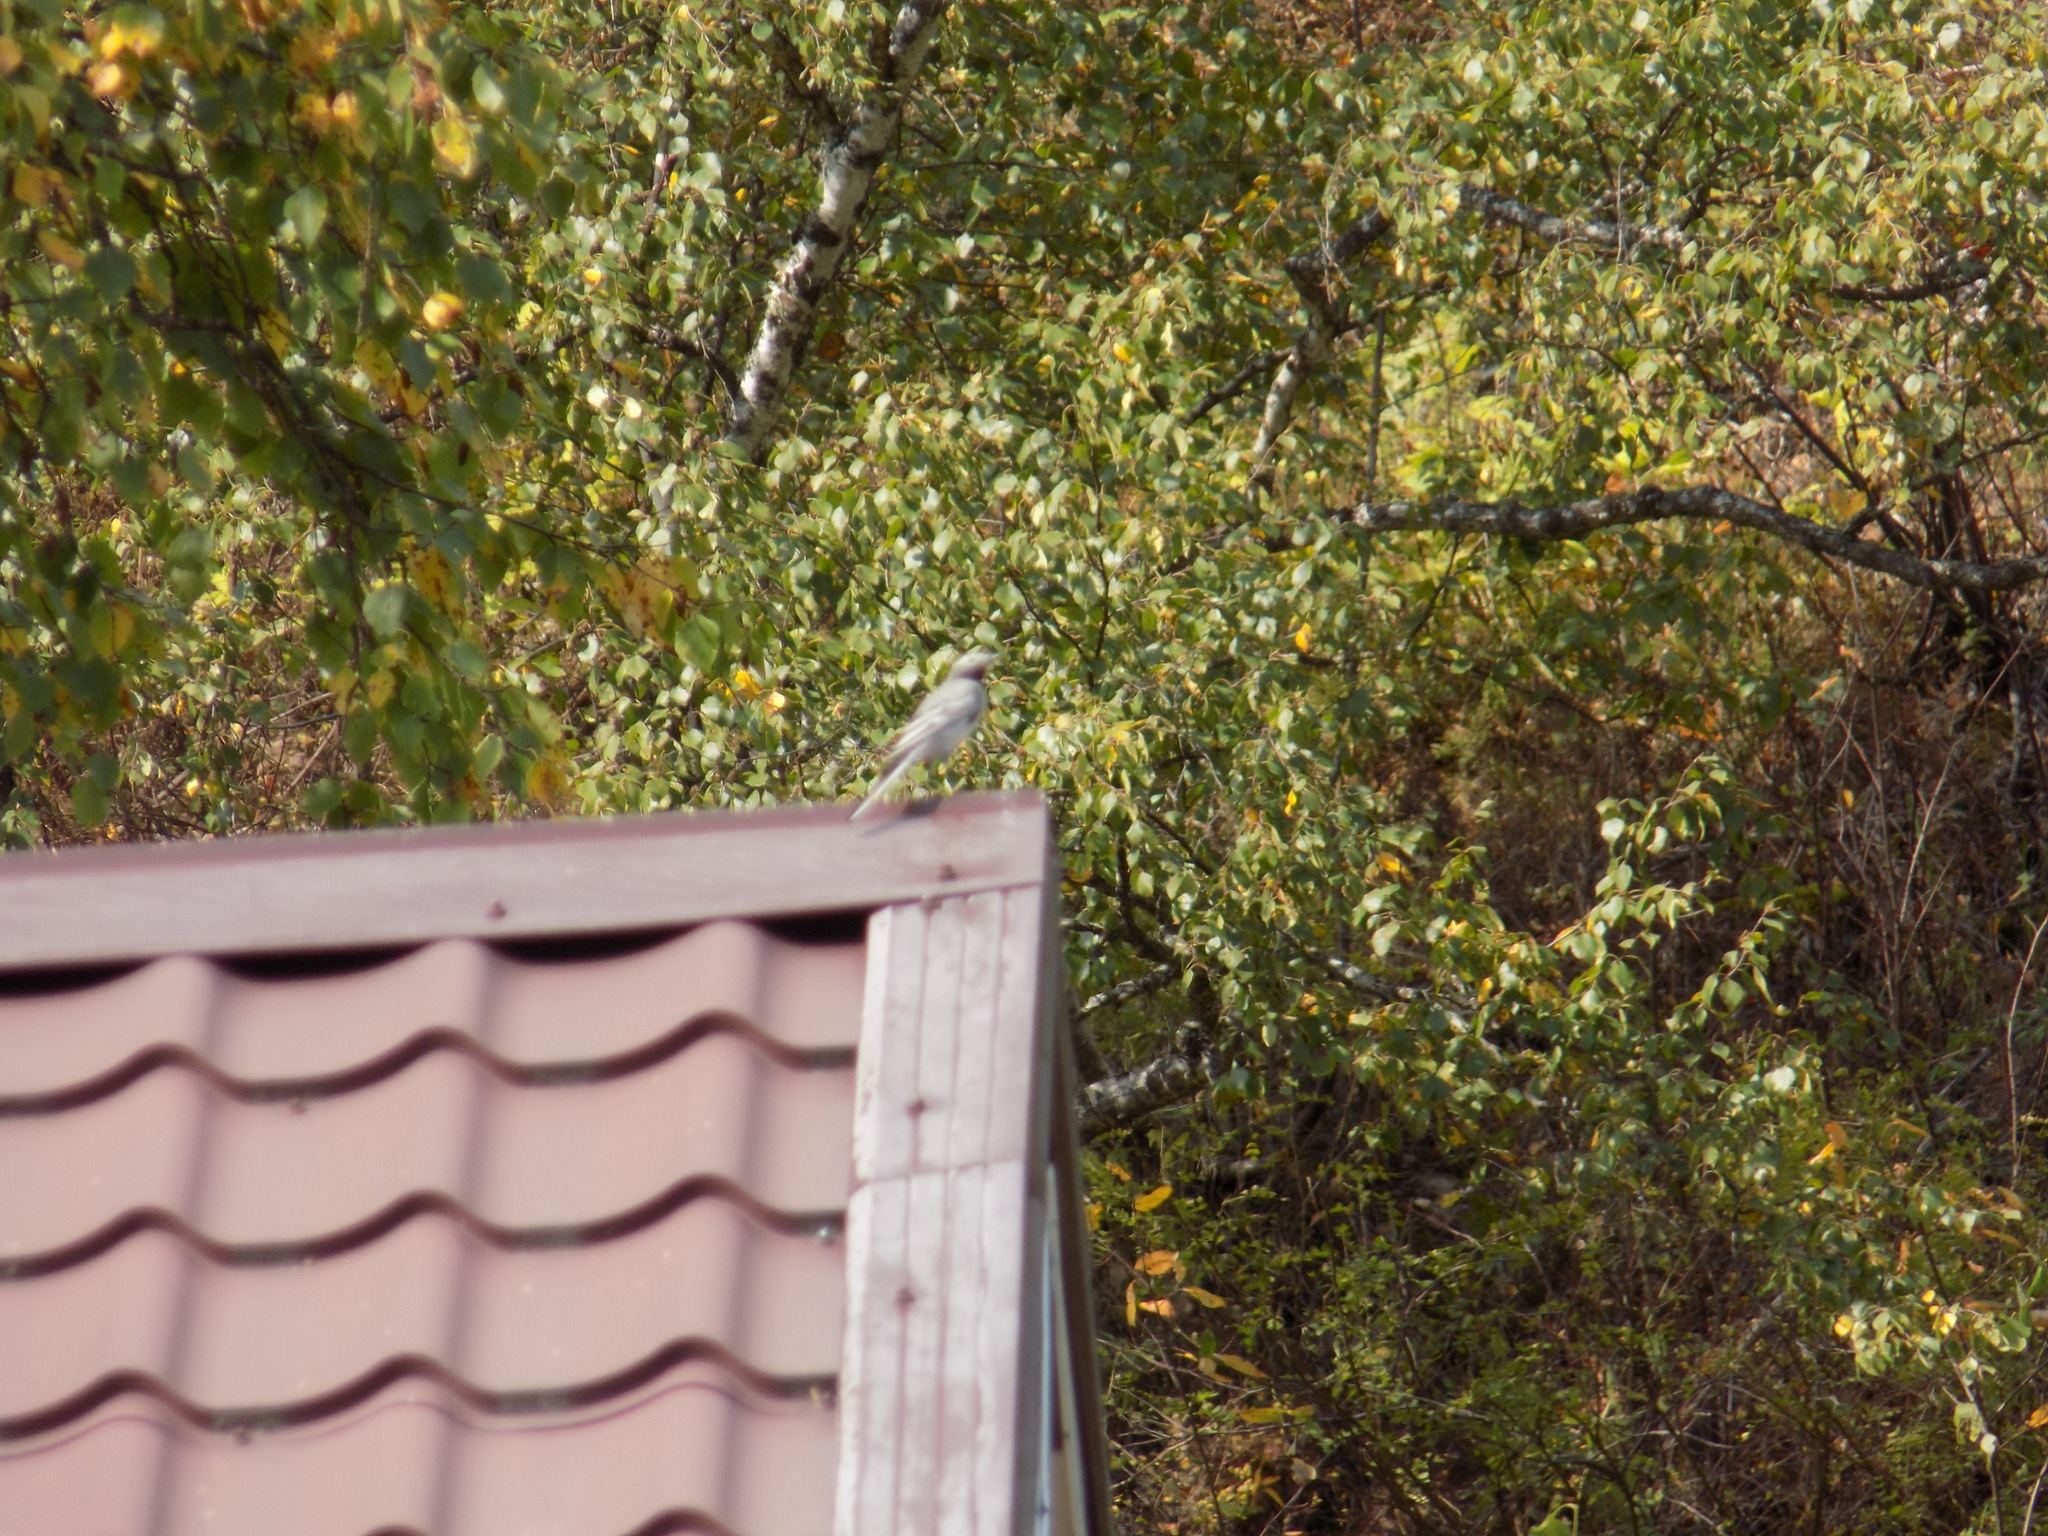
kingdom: Animalia
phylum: Chordata
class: Aves
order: Passeriformes
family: Motacillidae
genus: Motacilla
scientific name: Motacilla alba
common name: White wagtail
